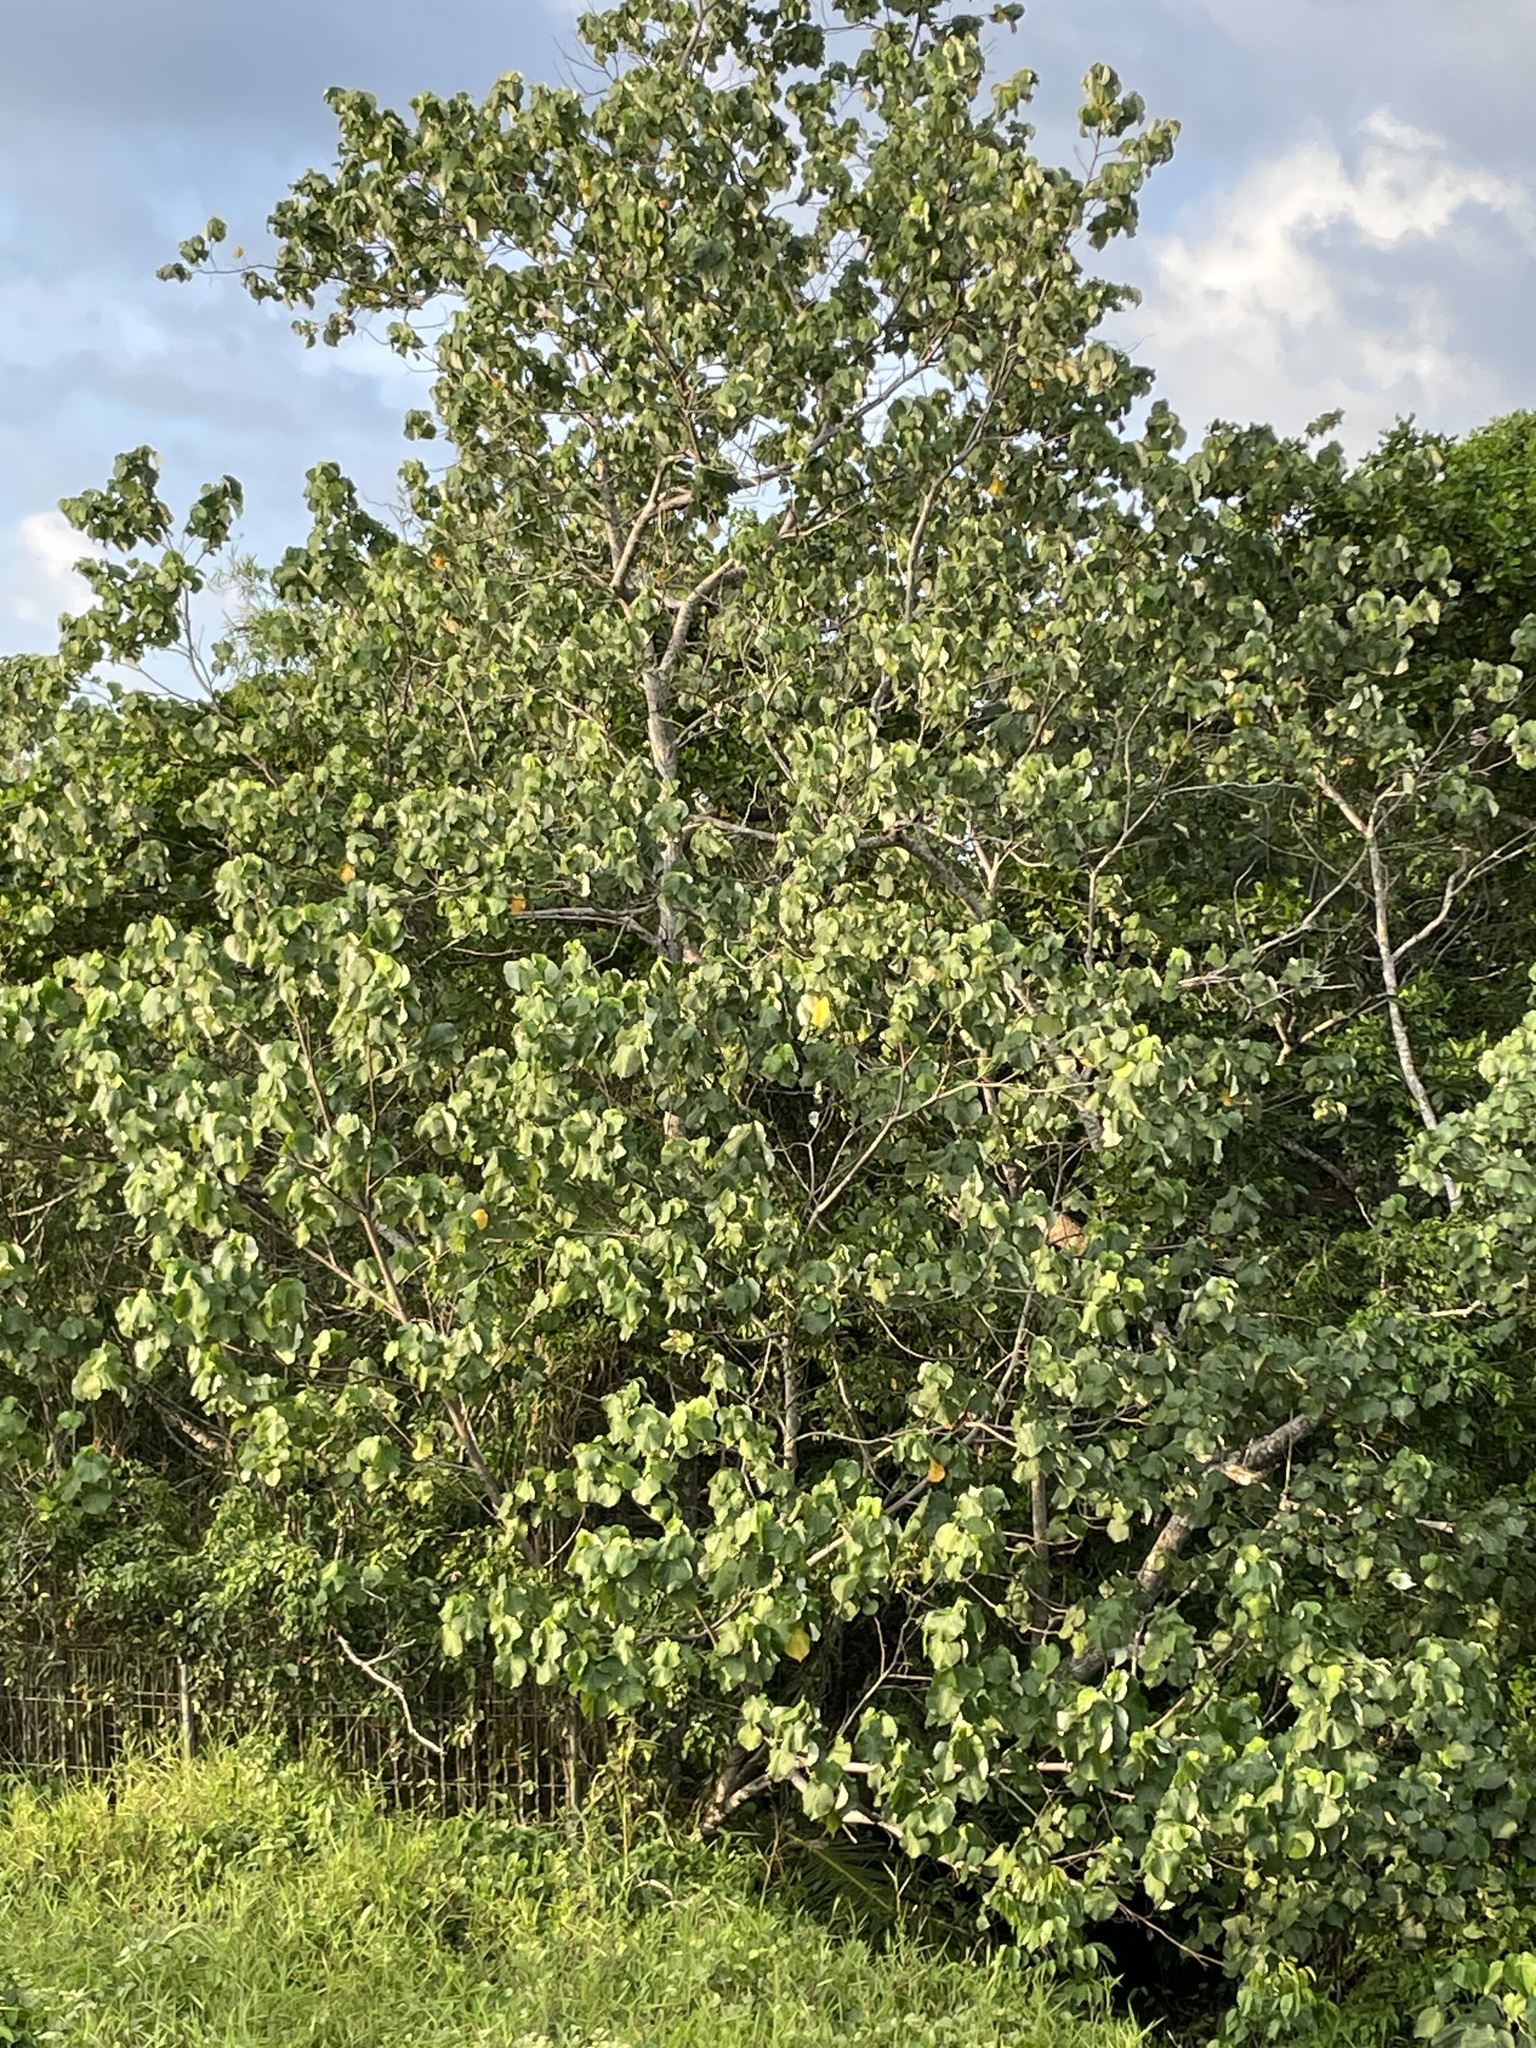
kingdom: Plantae
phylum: Tracheophyta
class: Magnoliopsida
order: Malvales
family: Malvaceae
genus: Talipariti
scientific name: Talipariti tiliaceum
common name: Sea hibiscus
